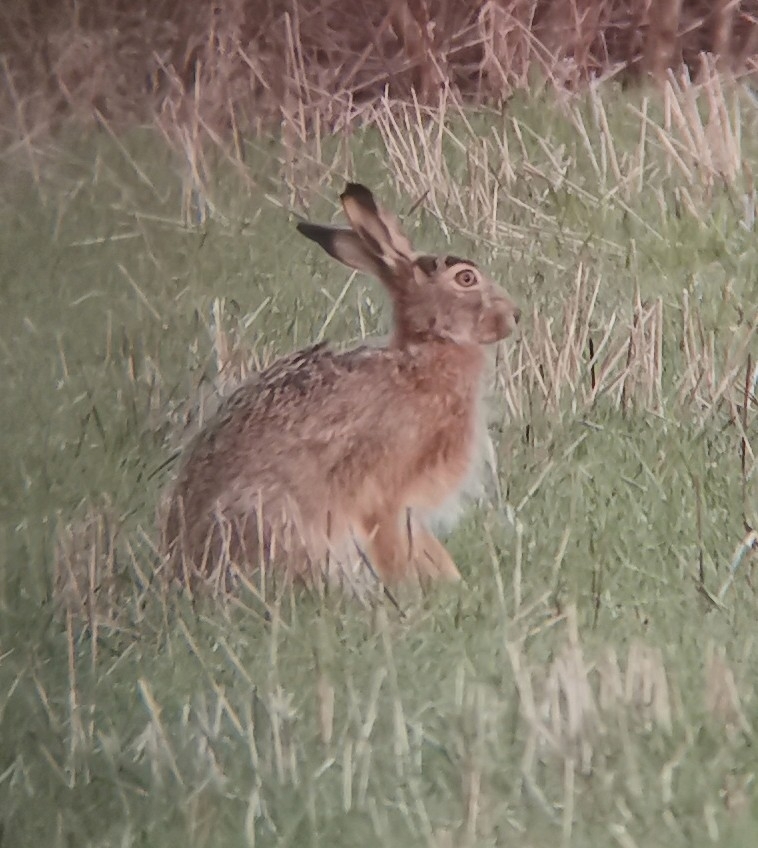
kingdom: Animalia
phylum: Chordata
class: Mammalia
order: Lagomorpha
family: Leporidae
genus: Lepus
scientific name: Lepus europaeus
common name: European hare
